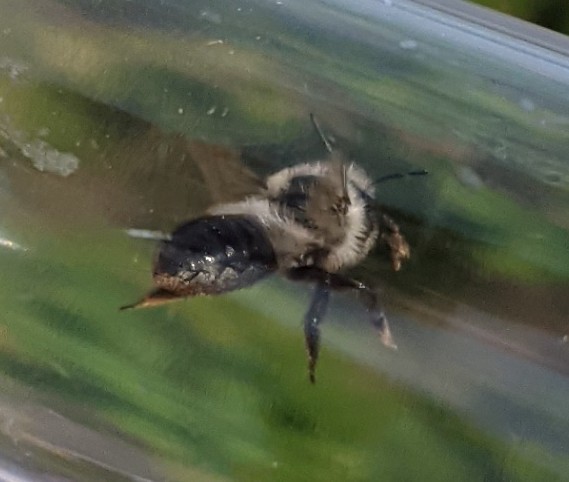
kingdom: Animalia
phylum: Arthropoda
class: Insecta
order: Hymenoptera
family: Megachilidae
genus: Megachile
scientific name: Megachile melanophaea
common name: Black-and-gray leafcutter bee
